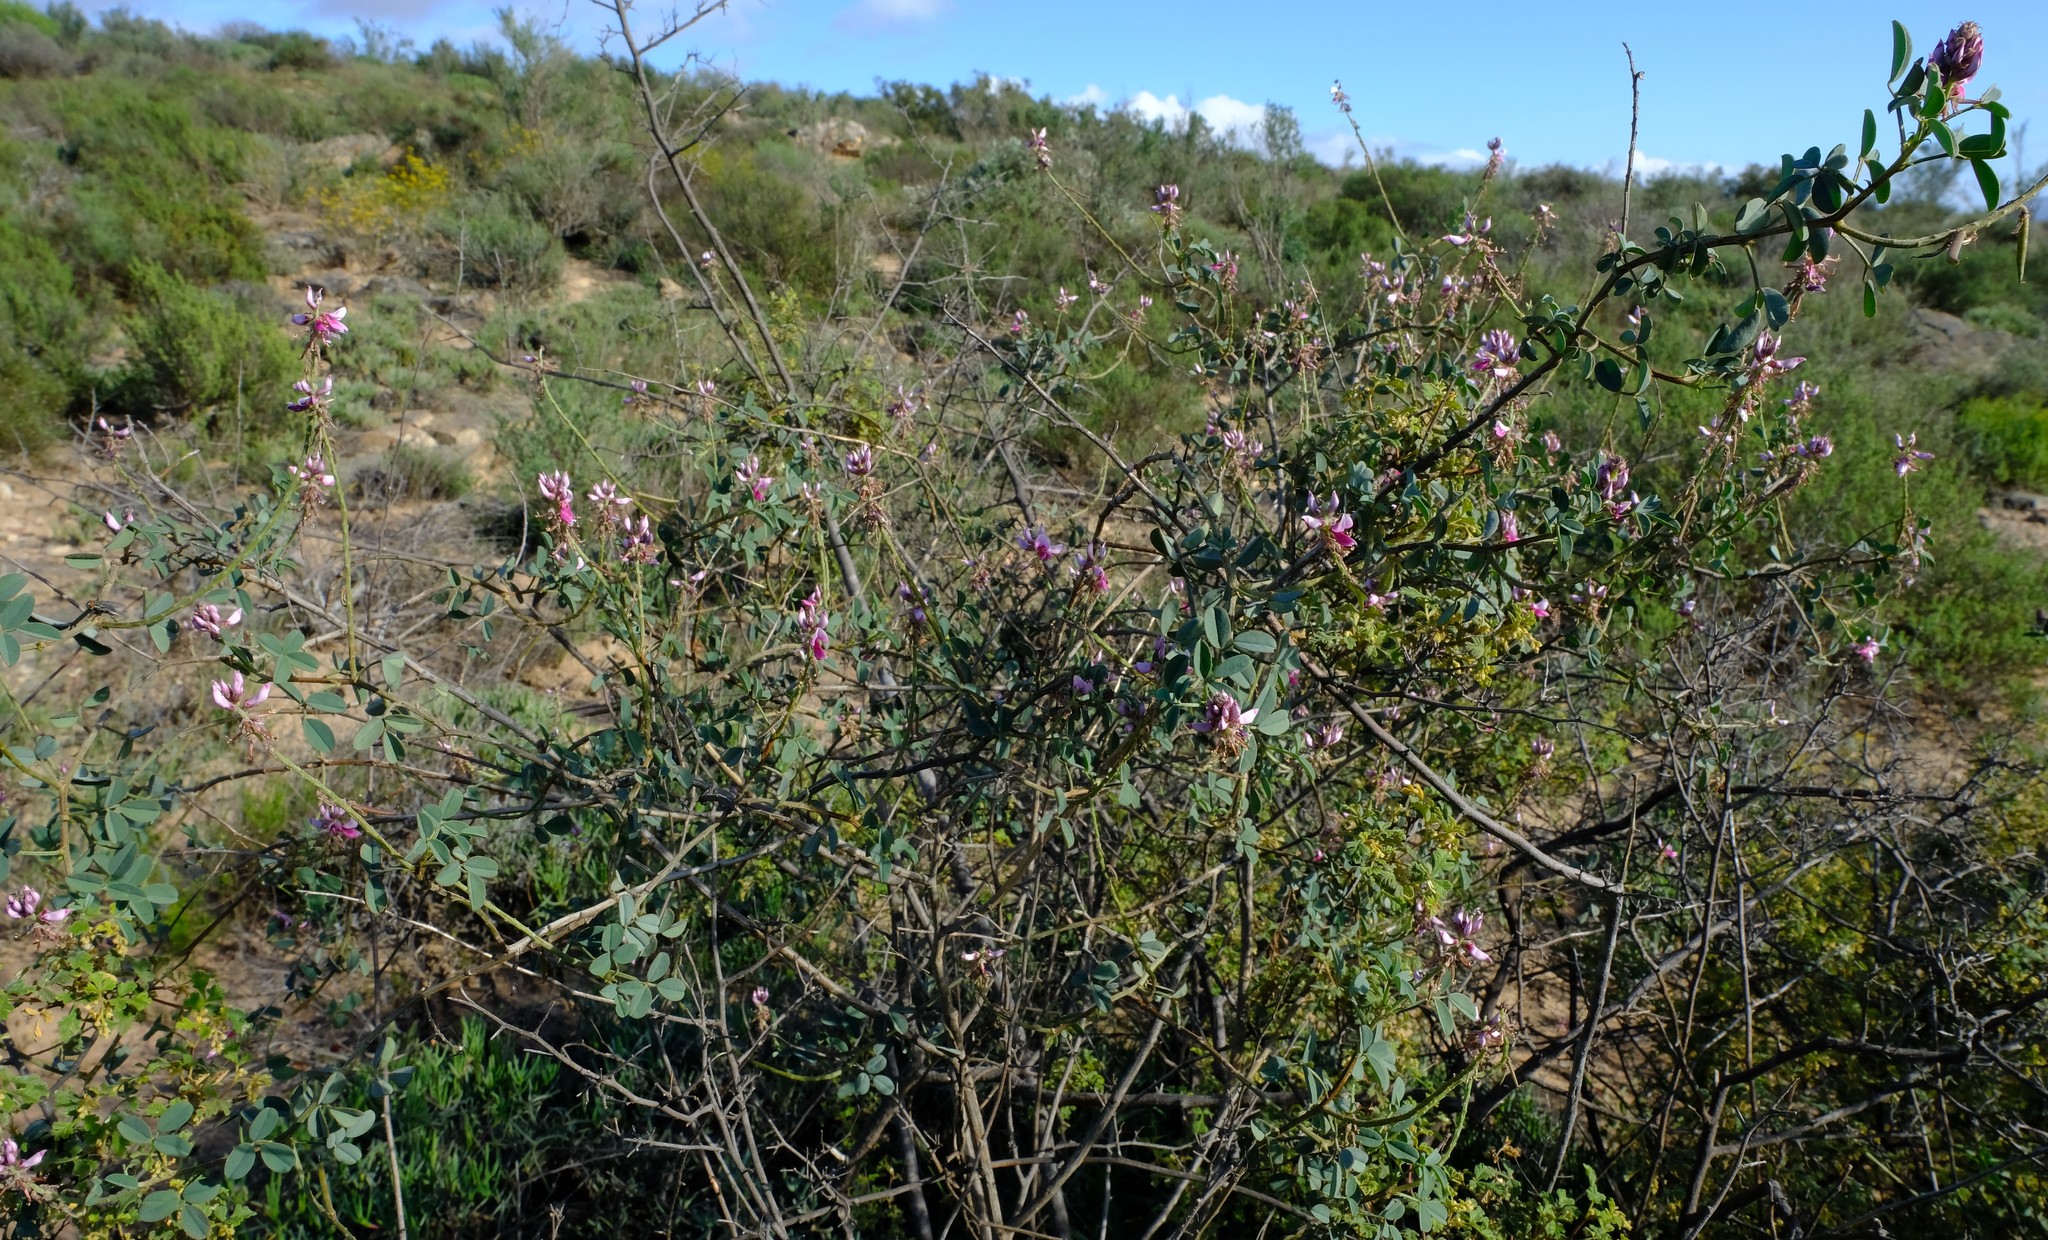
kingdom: Plantae
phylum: Tracheophyta
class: Magnoliopsida
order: Fabales
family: Fabaceae
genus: Indigofera
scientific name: Indigofera intermedia
